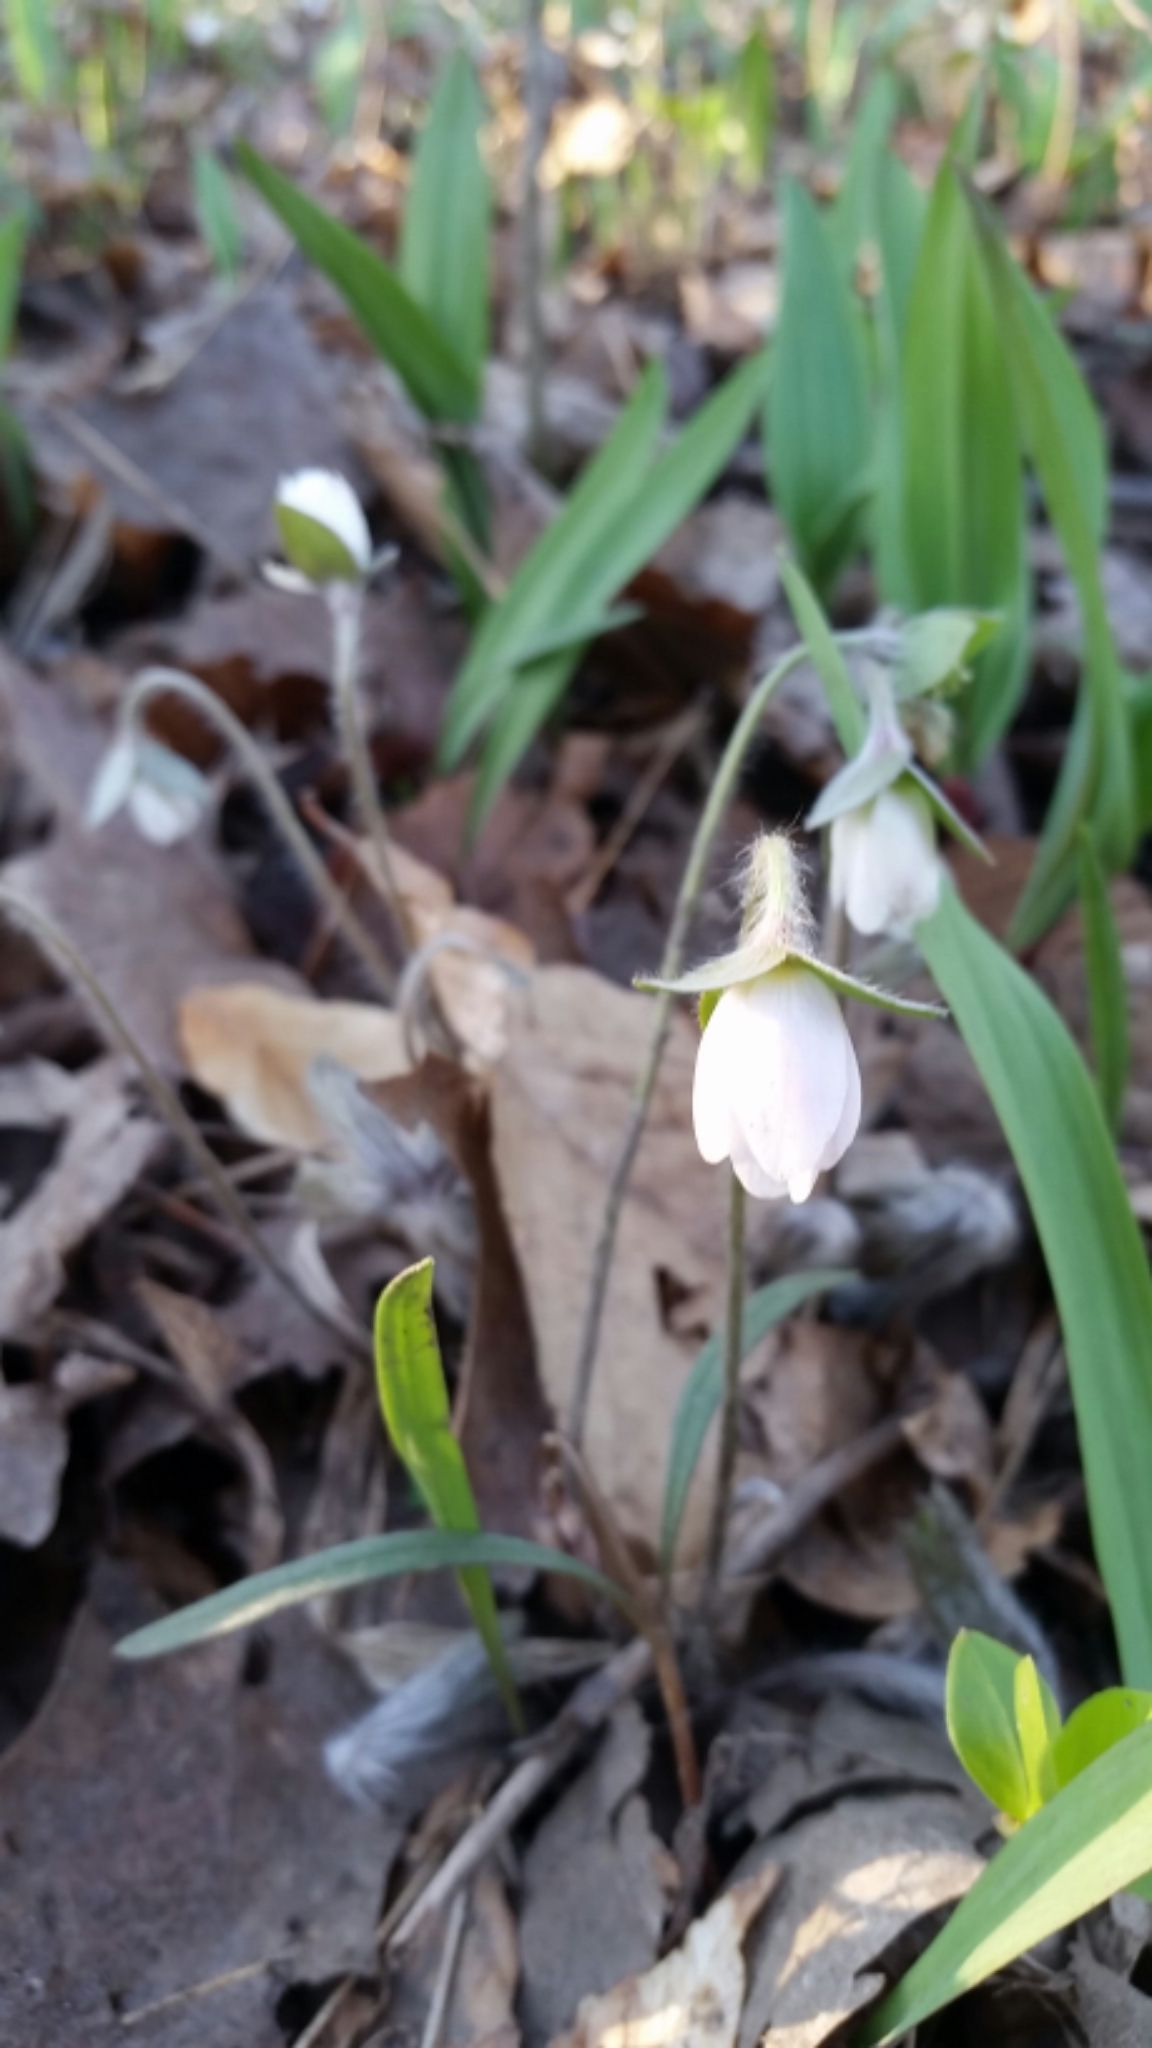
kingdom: Plantae
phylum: Tracheophyta
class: Magnoliopsida
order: Ranunculales
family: Ranunculaceae
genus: Hepatica
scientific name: Hepatica acutiloba
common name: Sharp-lobed hepatica
